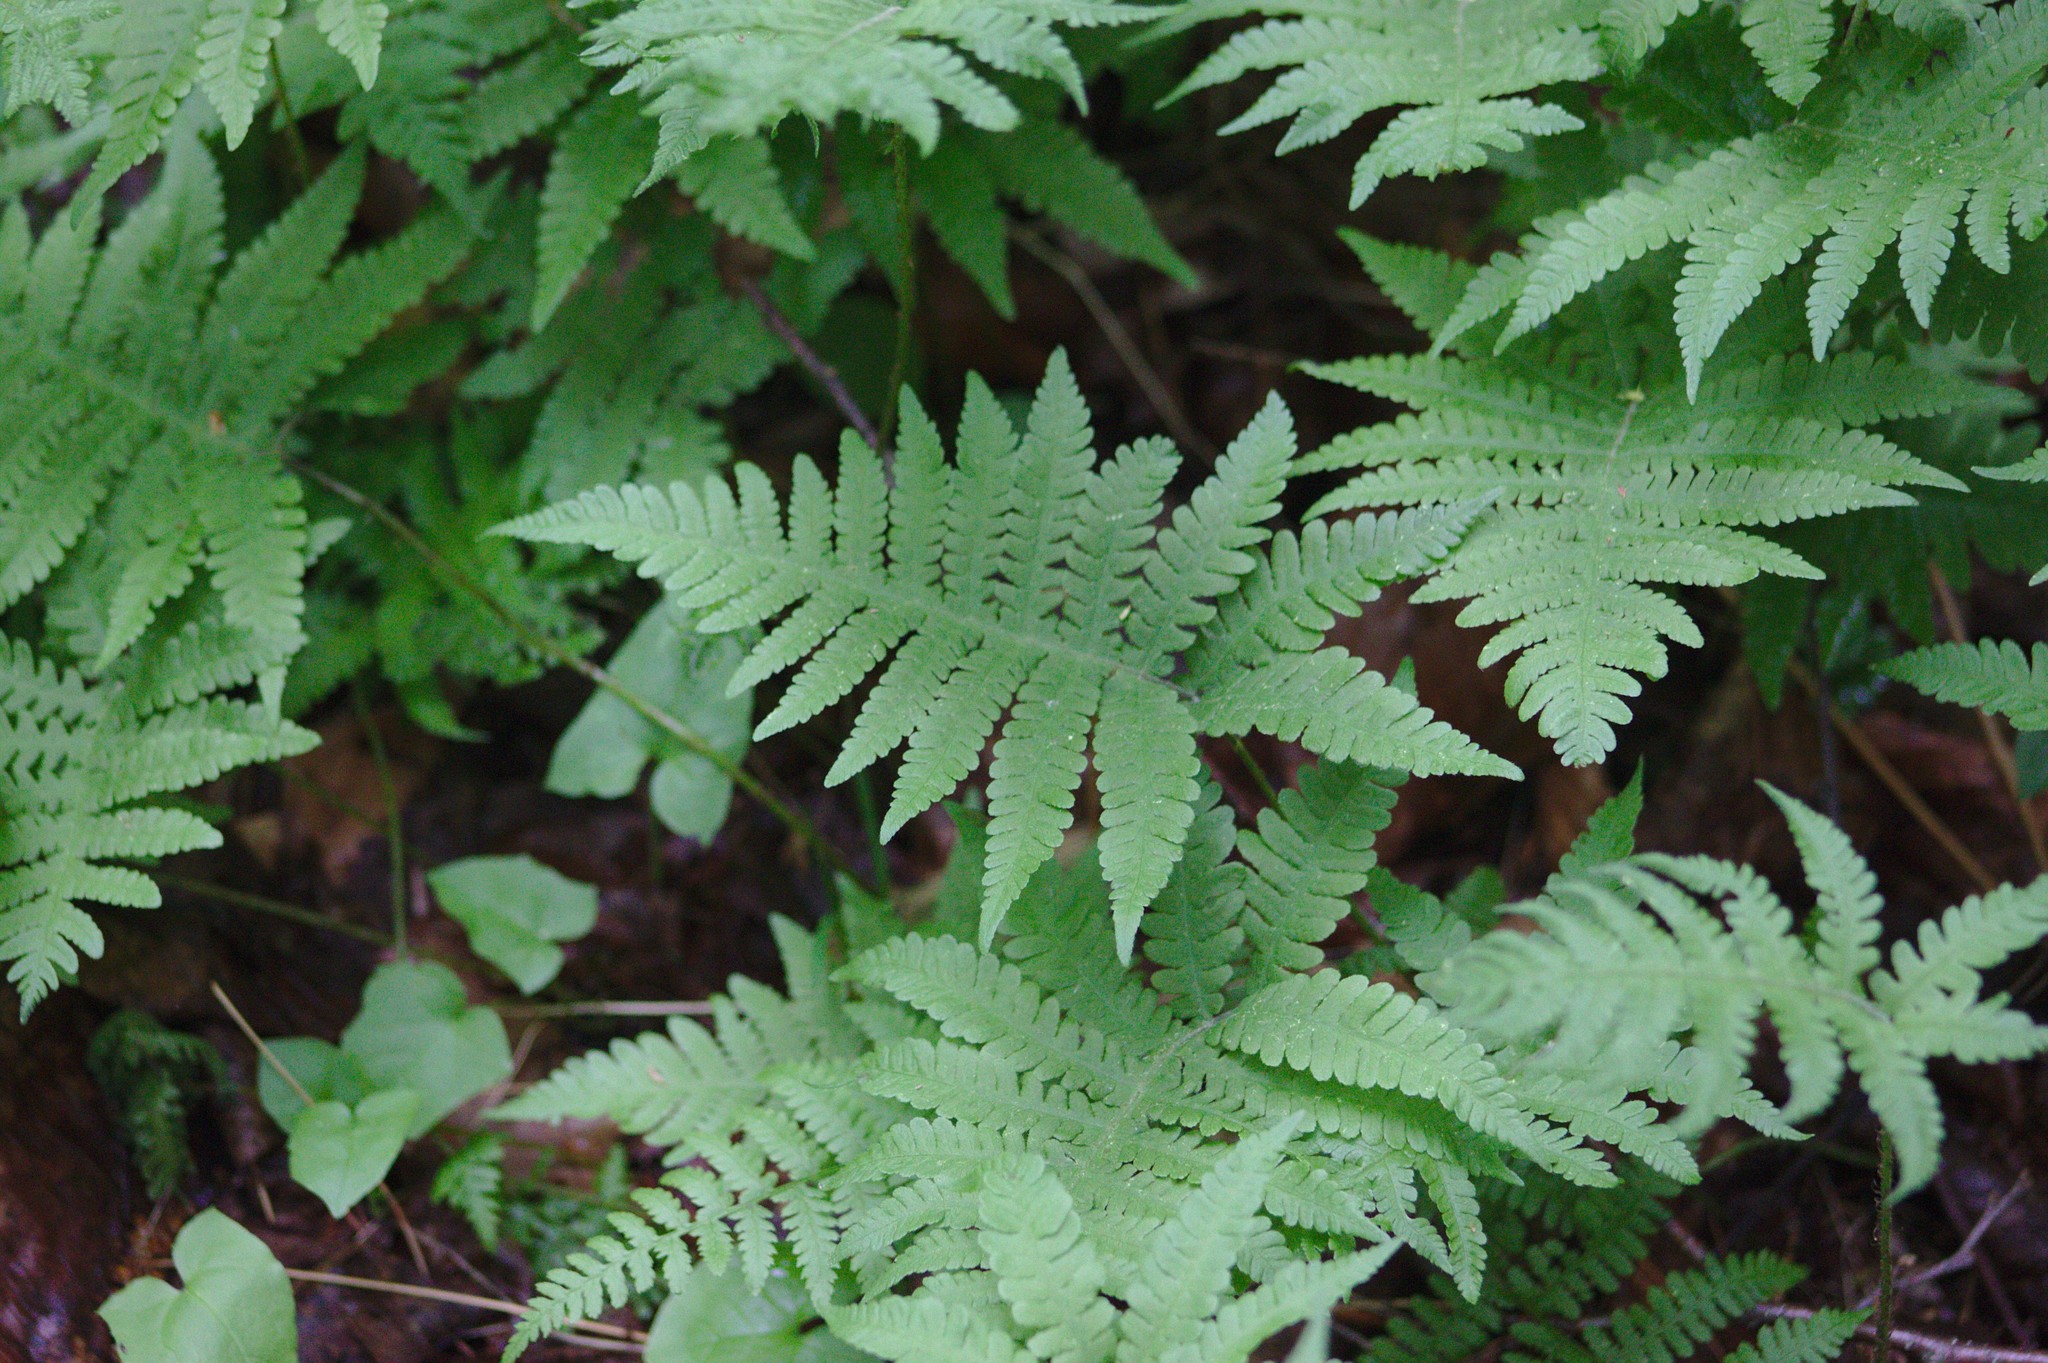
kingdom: Plantae
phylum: Tracheophyta
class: Polypodiopsida
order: Polypodiales
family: Thelypteridaceae
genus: Phegopteris
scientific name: Phegopteris connectilis
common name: Beech fern
